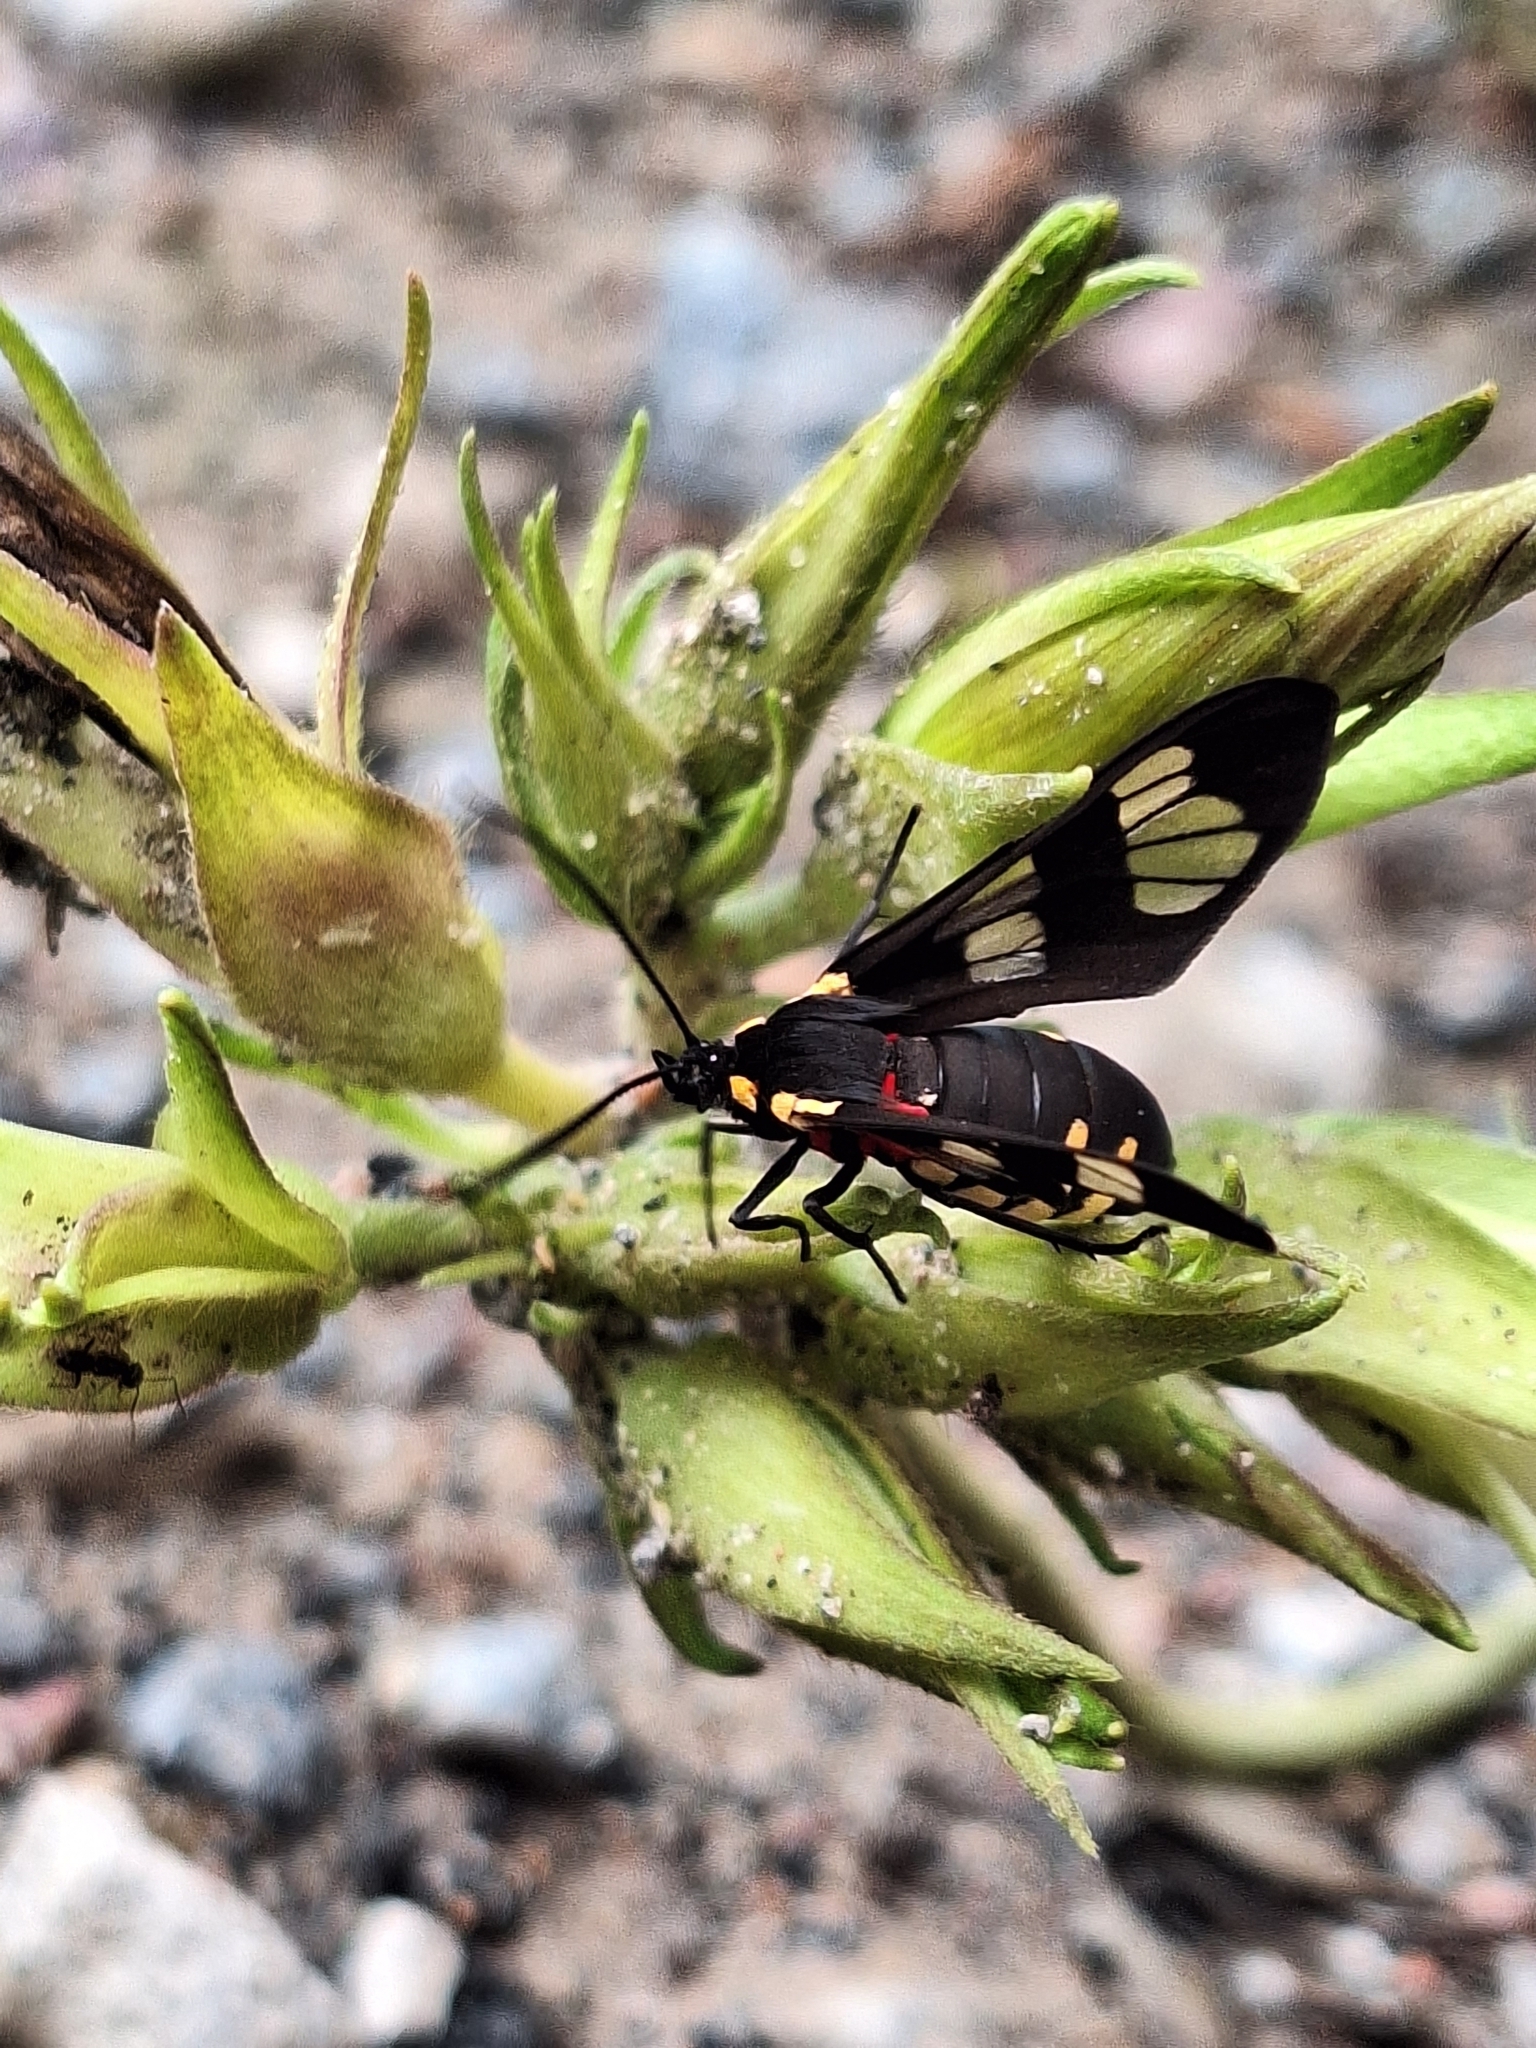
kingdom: Animalia
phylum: Arthropoda
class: Insecta
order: Lepidoptera
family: Erebidae
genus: Eurata
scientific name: Eurata hermione
